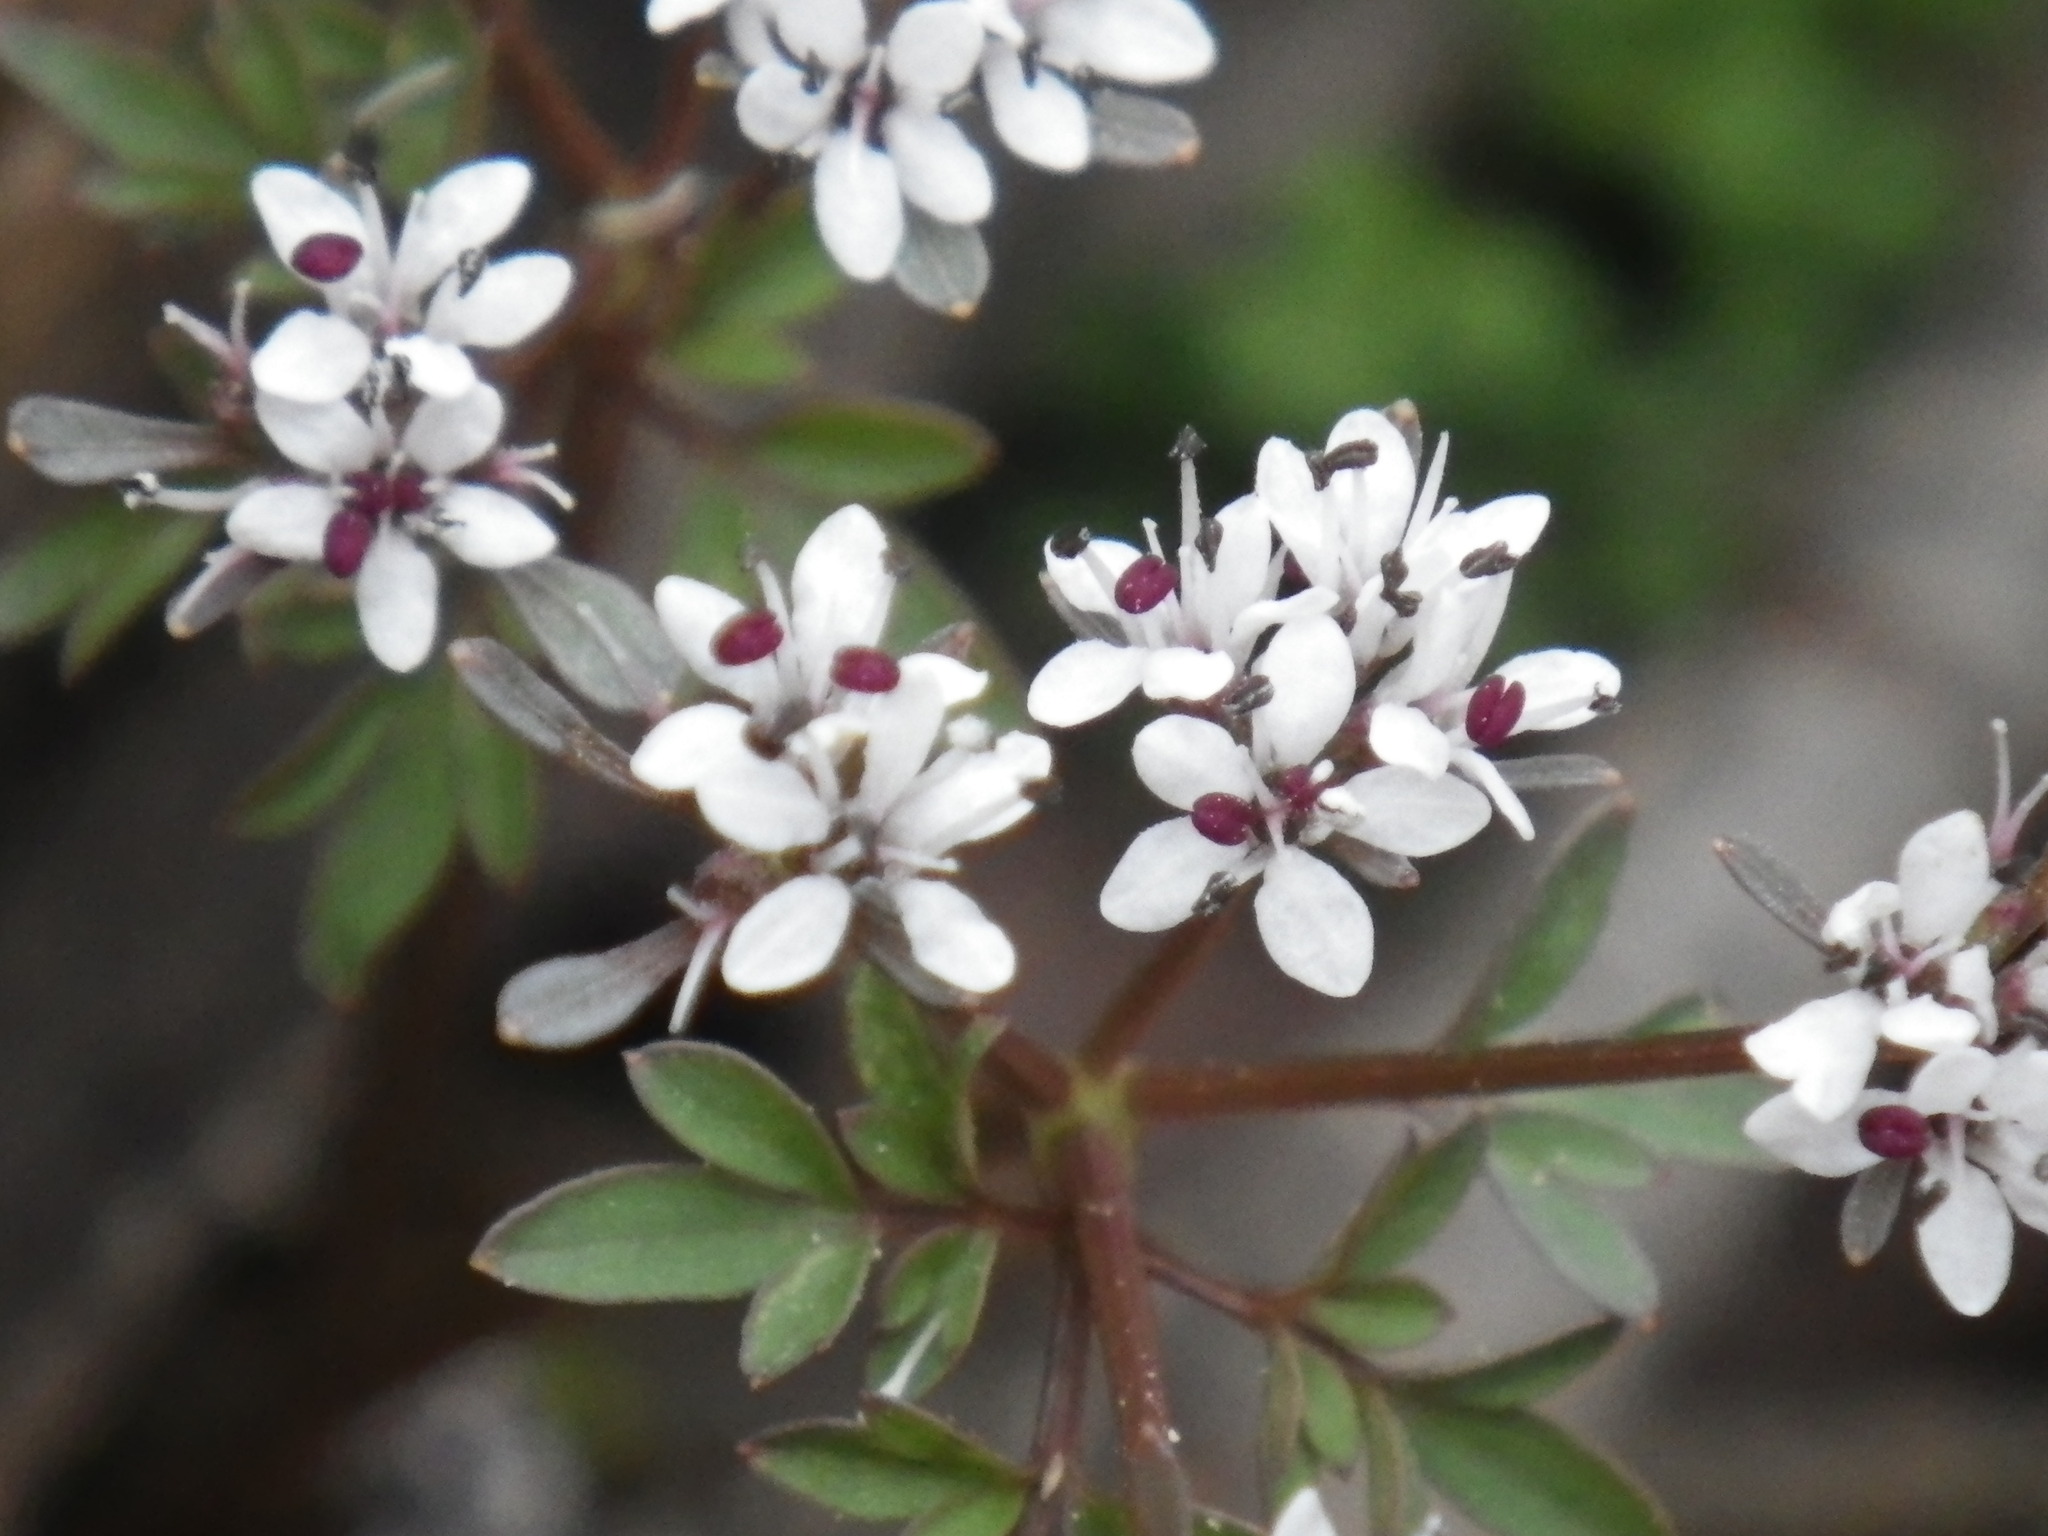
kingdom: Plantae
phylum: Tracheophyta
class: Magnoliopsida
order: Apiales
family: Apiaceae
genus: Erigenia
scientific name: Erigenia bulbosa
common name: Pepper-and-salt
